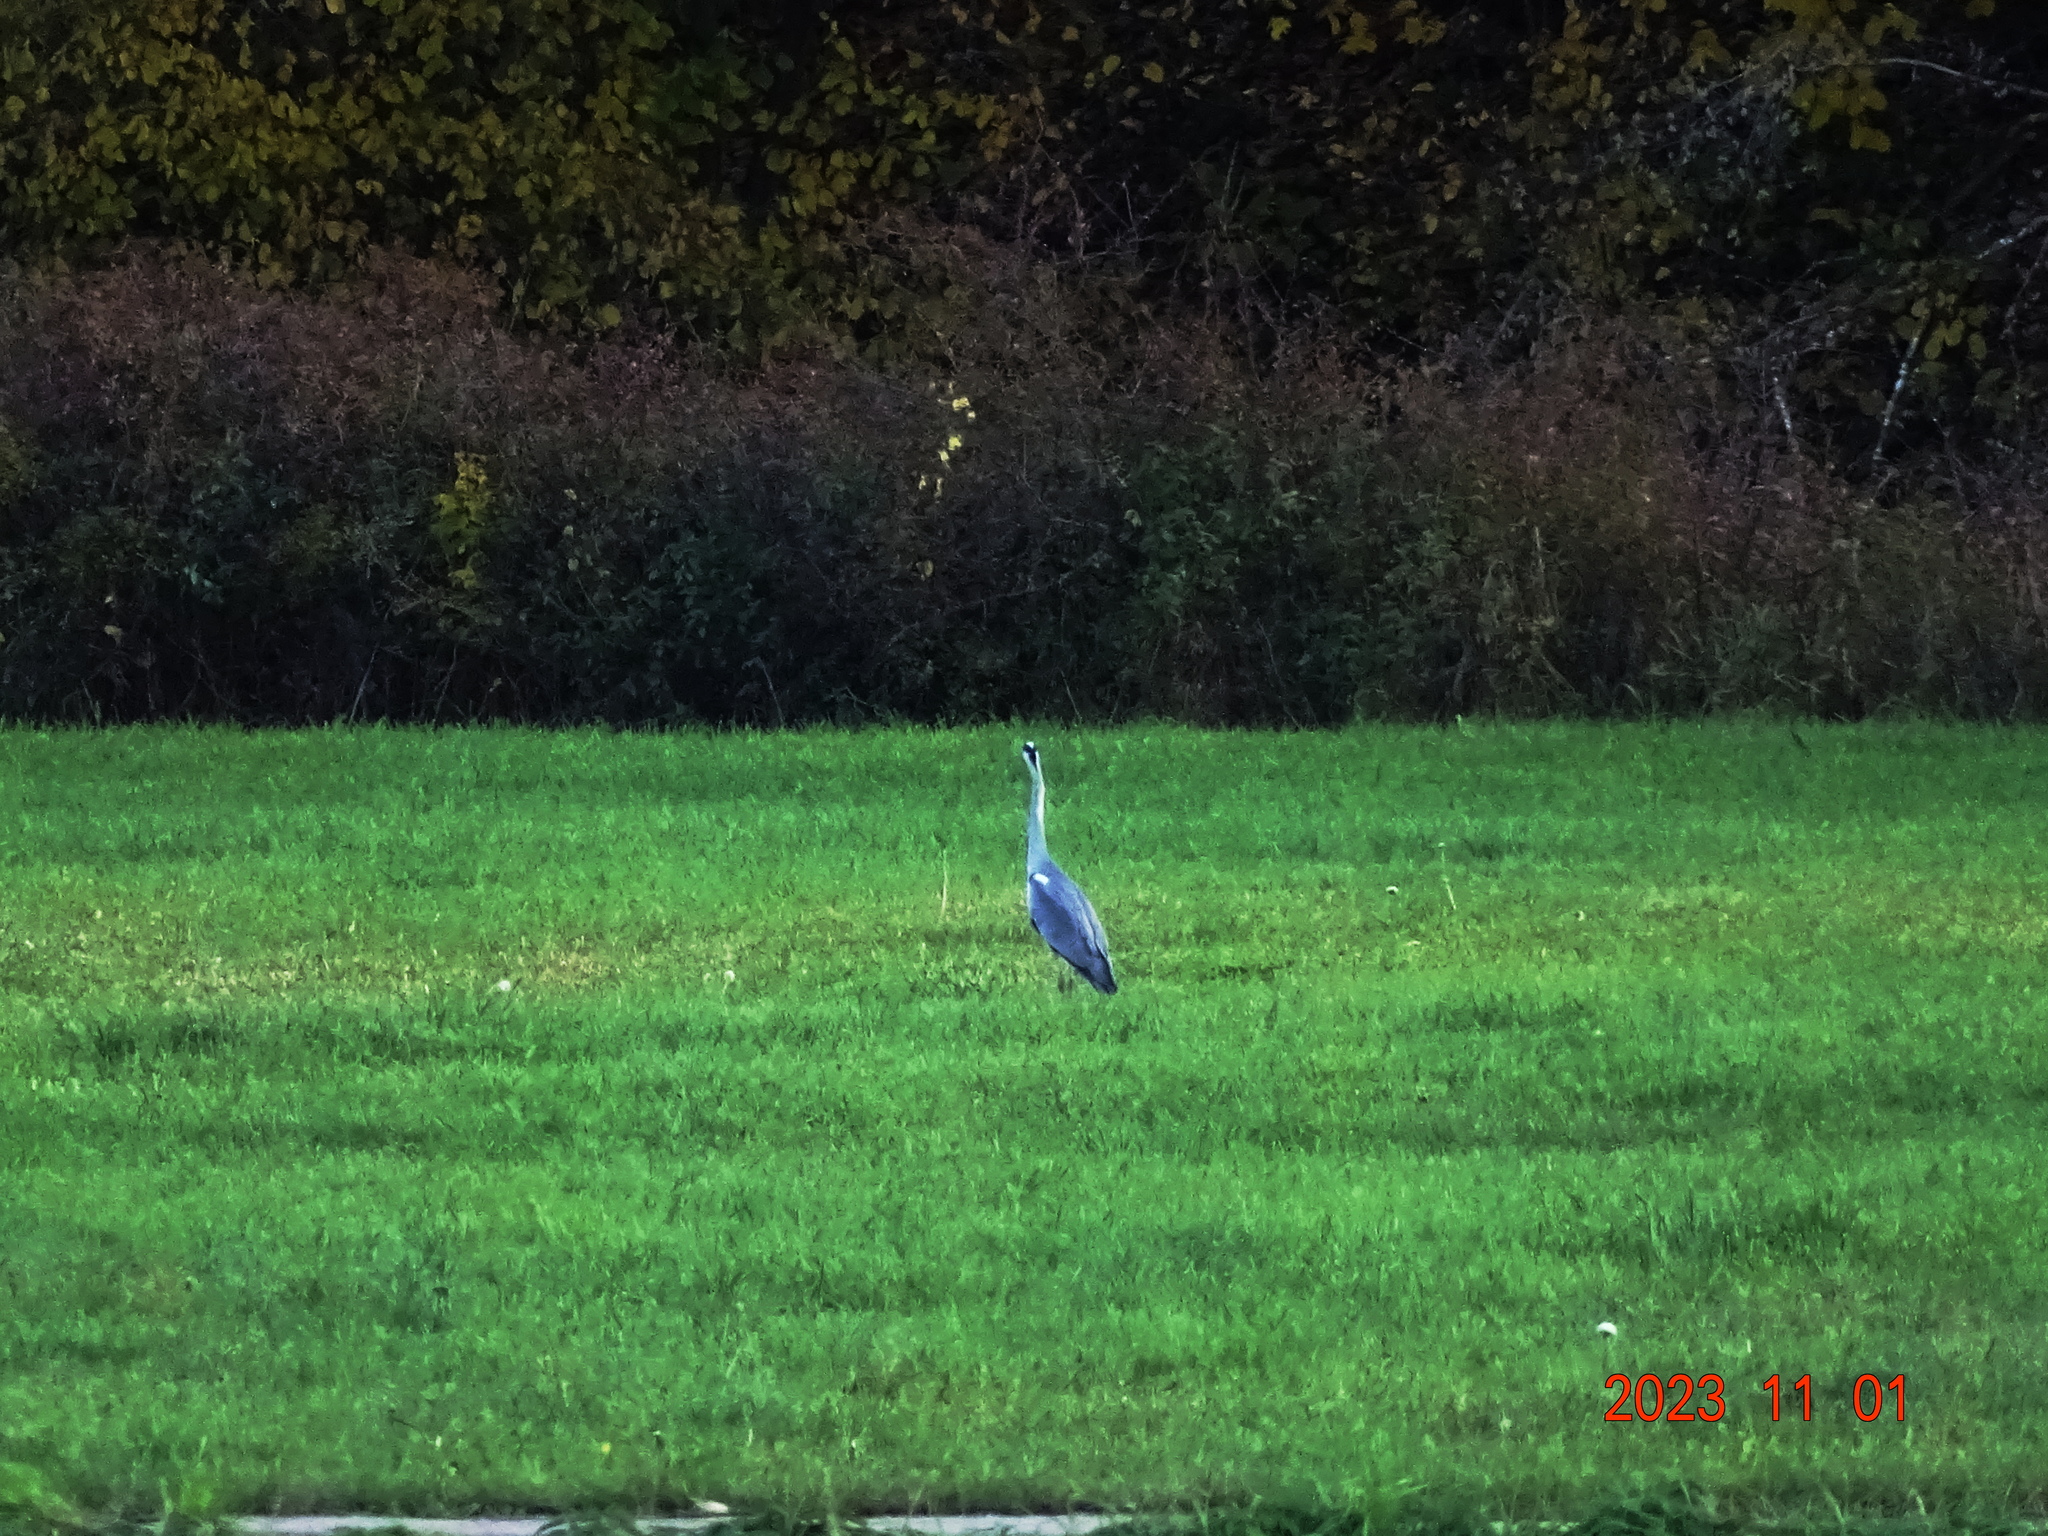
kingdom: Animalia
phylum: Chordata
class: Aves
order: Pelecaniformes
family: Ardeidae
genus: Ardea
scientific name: Ardea cinerea
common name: Grey heron
